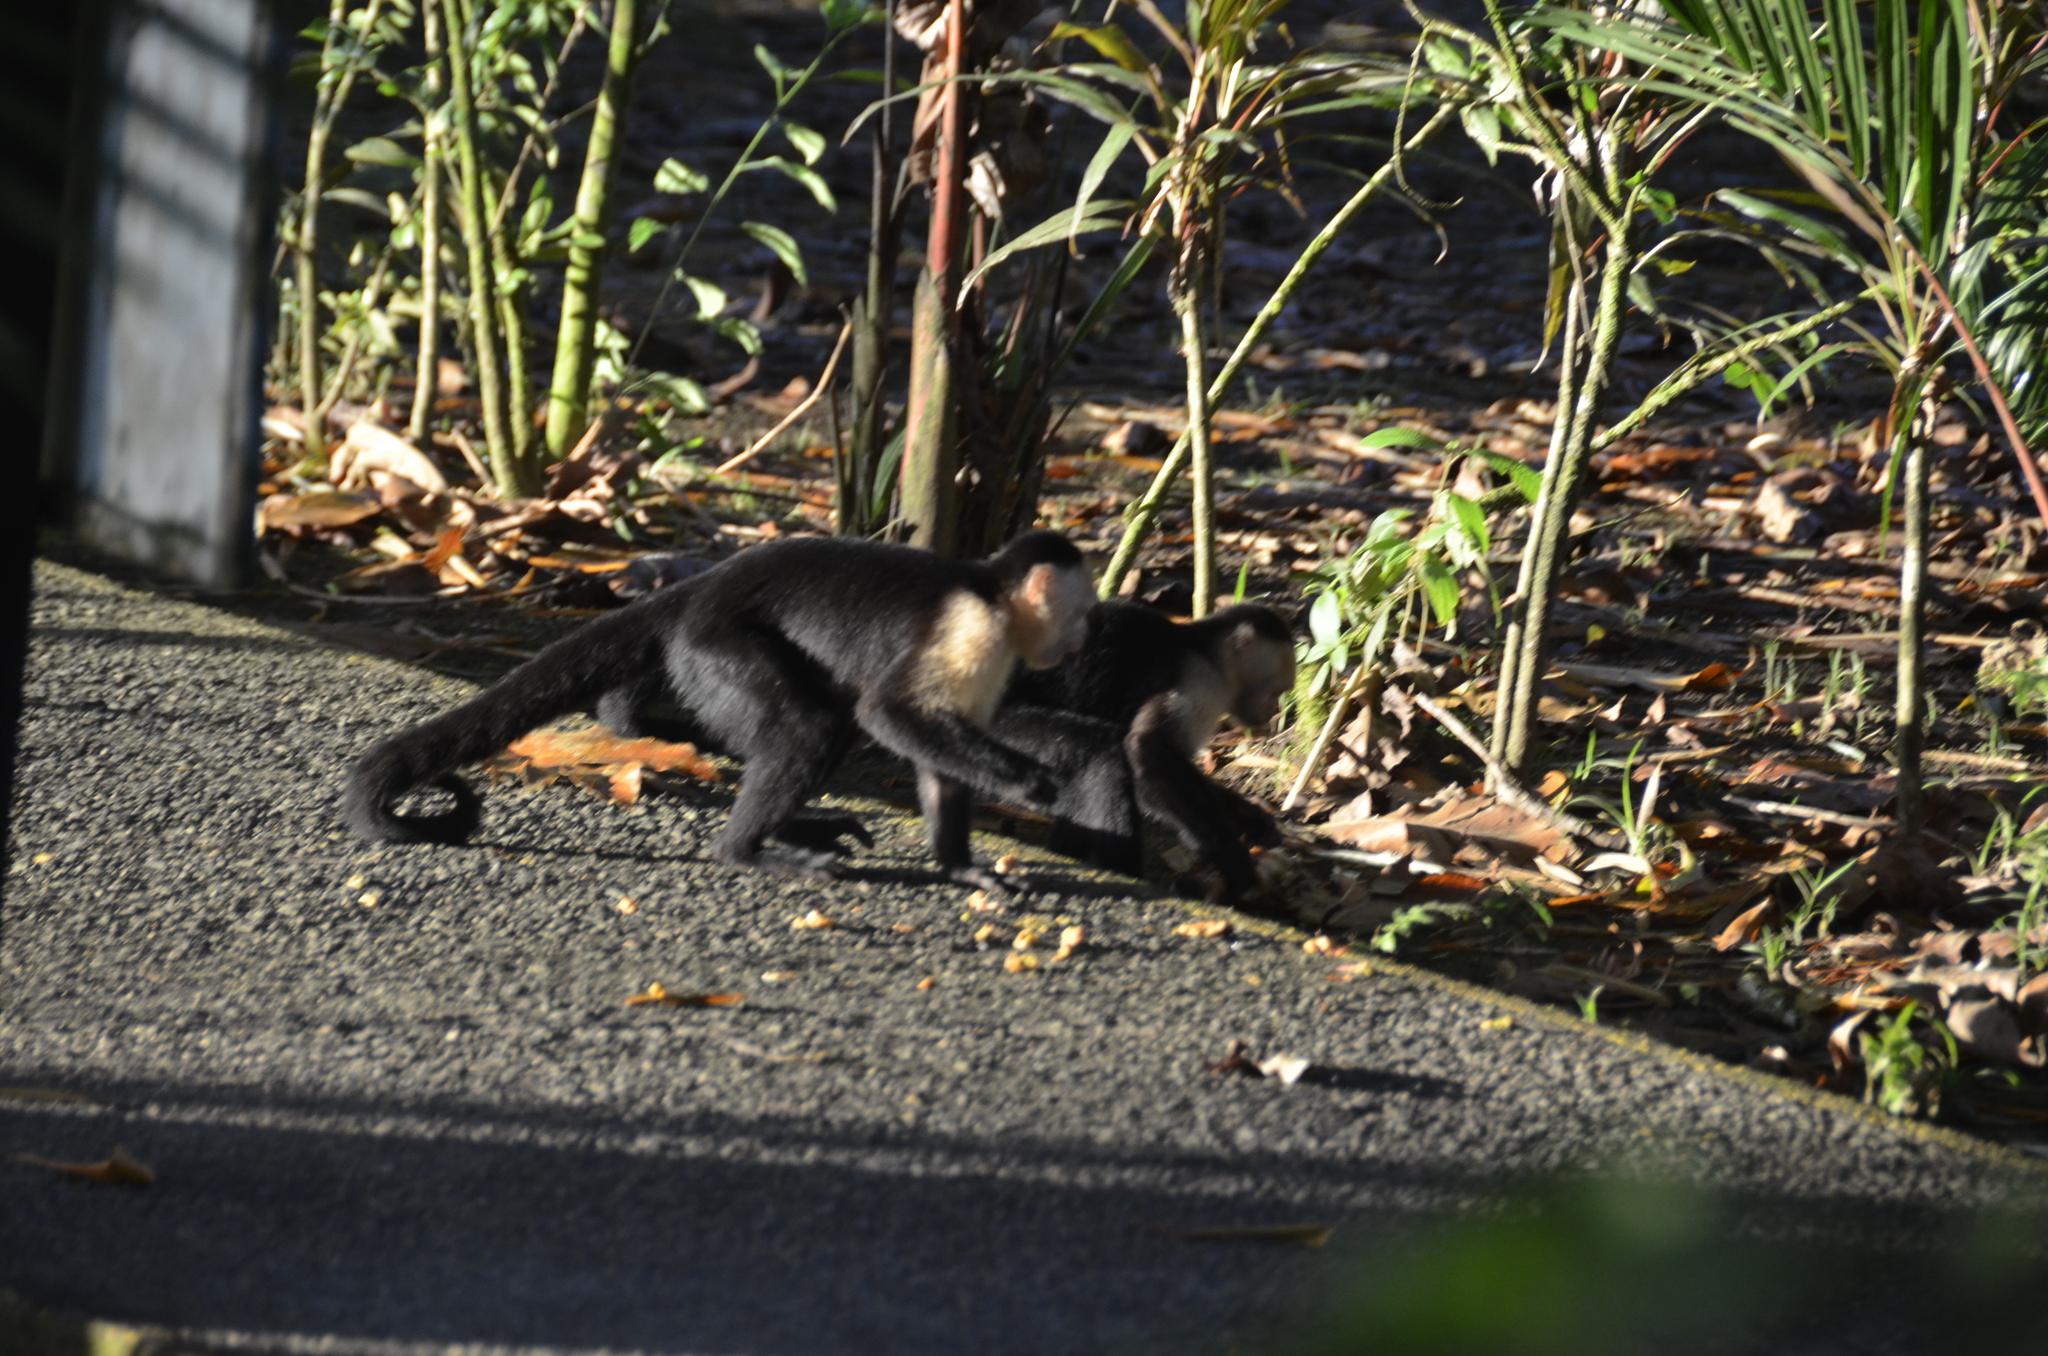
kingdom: Animalia
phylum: Chordata
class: Mammalia
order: Primates
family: Cebidae
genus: Cebus
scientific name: Cebus imitator
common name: Panamanian white-faced capuchin
